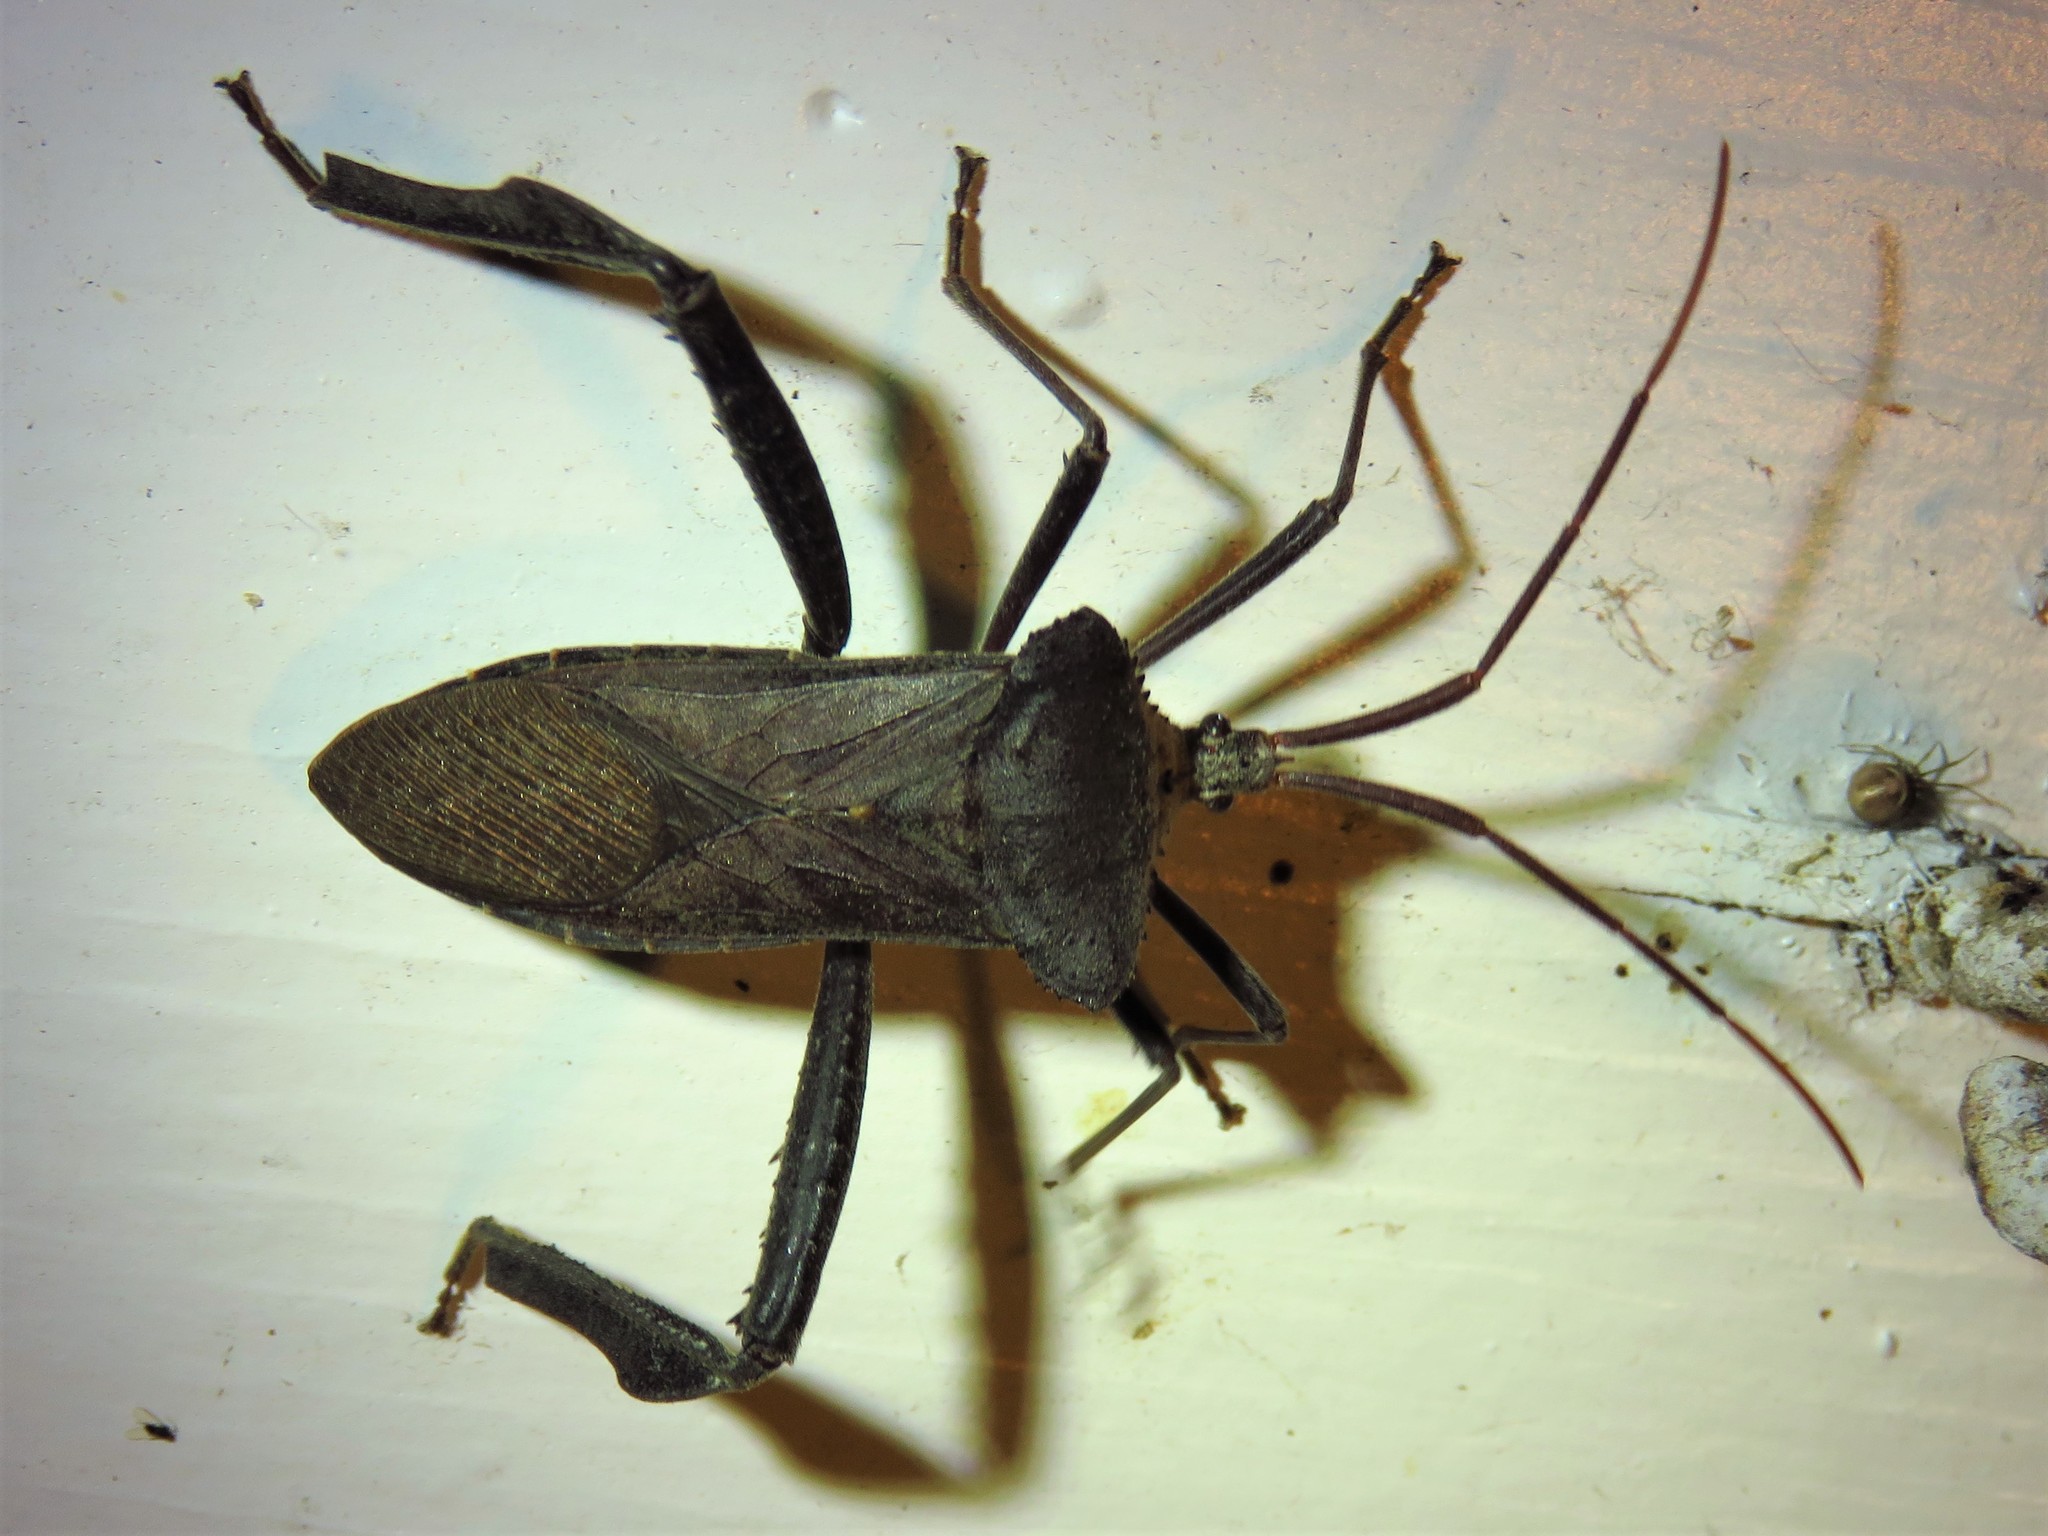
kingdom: Animalia
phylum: Arthropoda
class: Insecta
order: Hemiptera
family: Coreidae
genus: Acanthocephala
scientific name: Acanthocephala declivis
